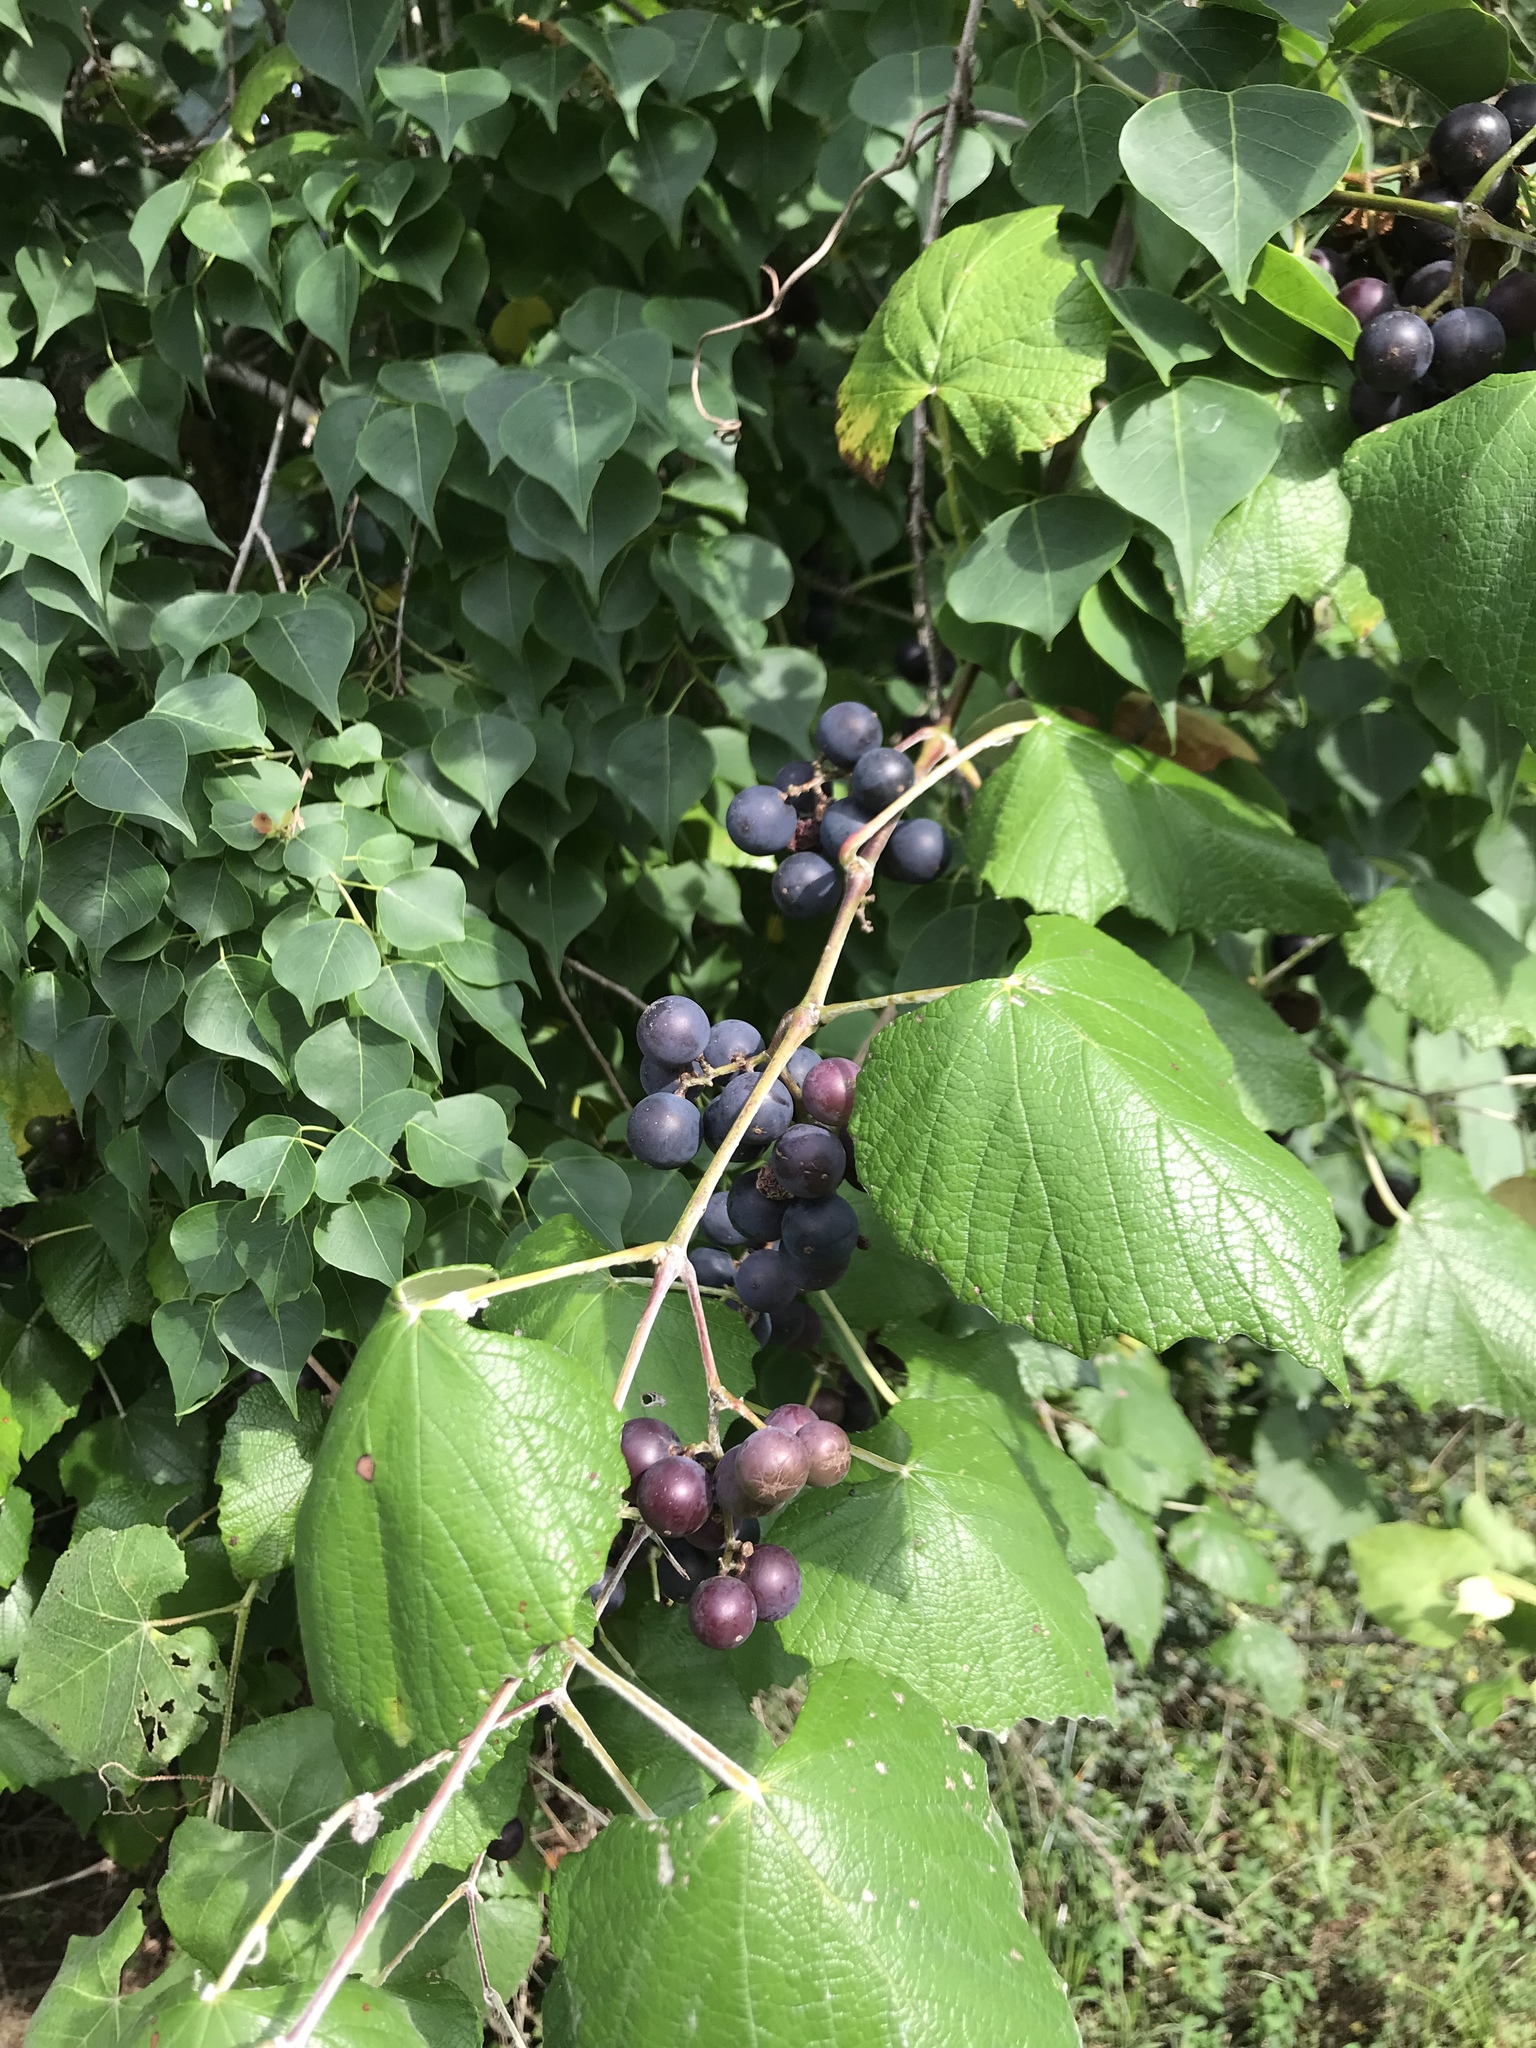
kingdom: Plantae
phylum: Tracheophyta
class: Magnoliopsida
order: Vitales
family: Vitaceae
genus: Vitis
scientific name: Vitis mustangensis
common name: Mustang grape
